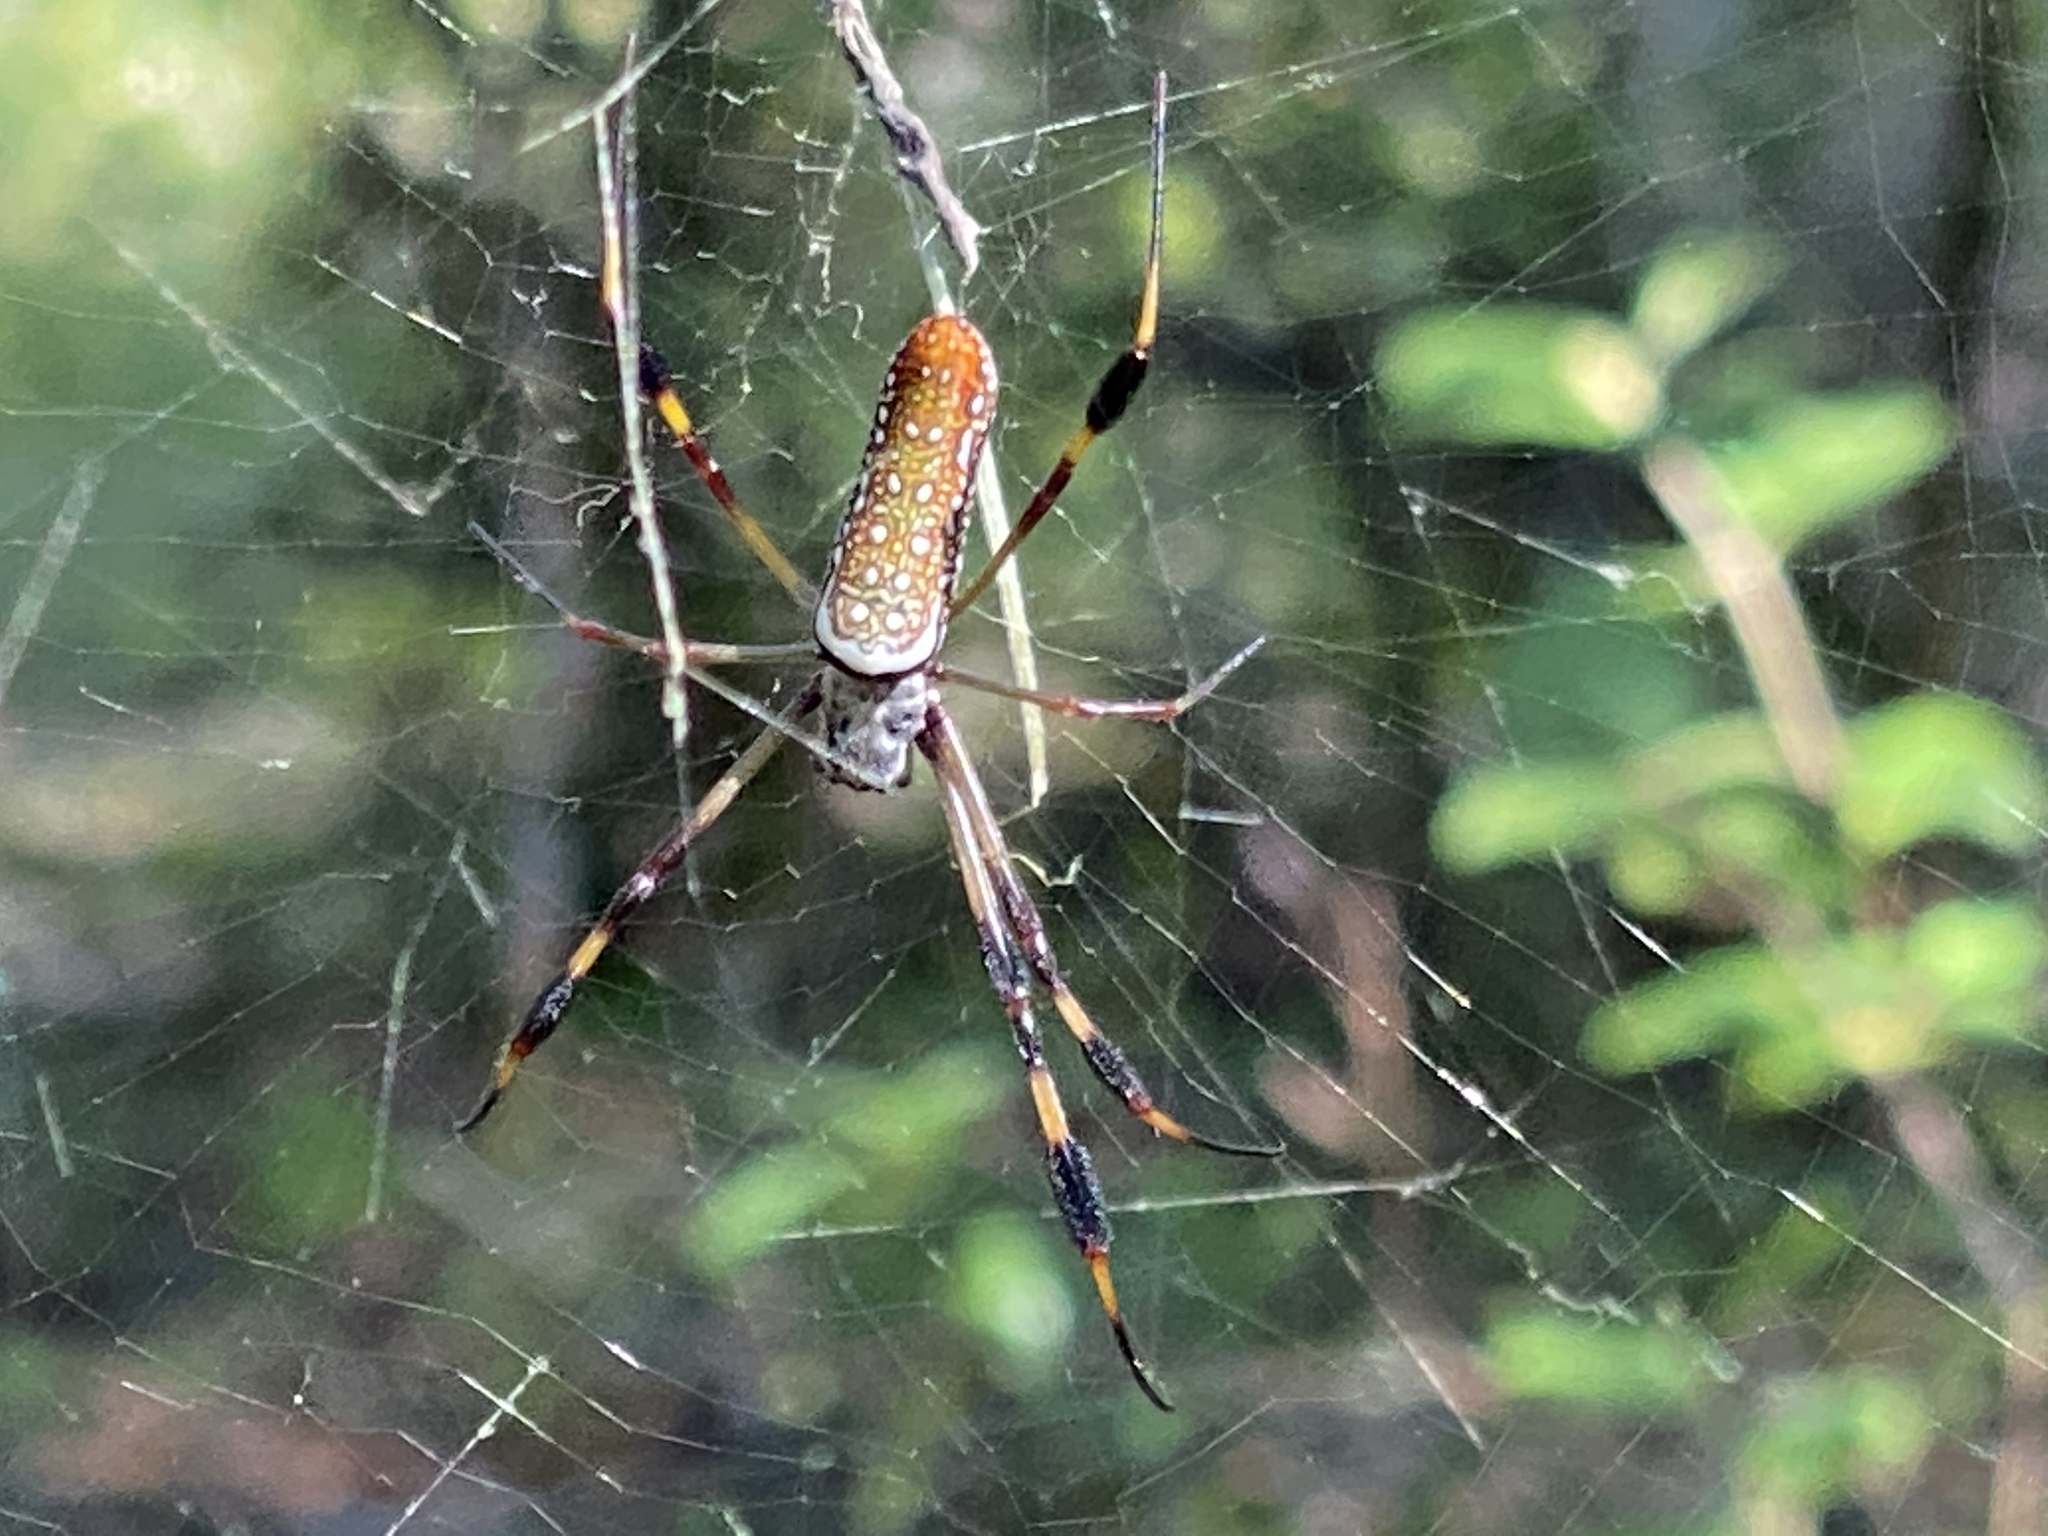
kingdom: Animalia
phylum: Arthropoda
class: Arachnida
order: Araneae
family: Araneidae
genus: Trichonephila
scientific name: Trichonephila clavipes
